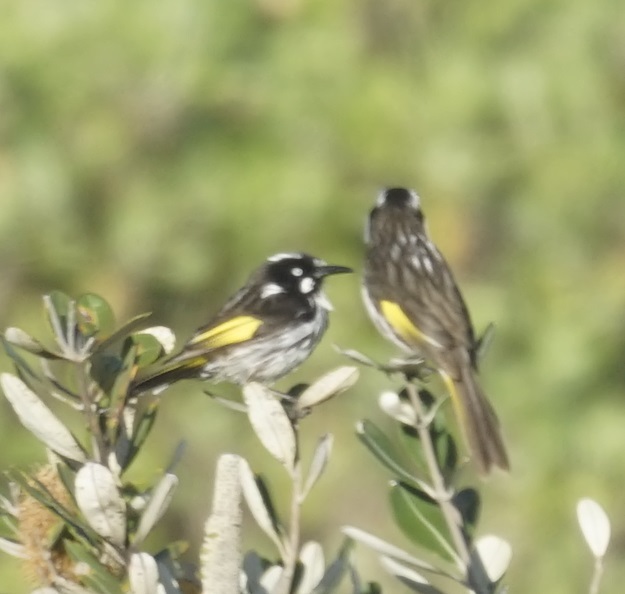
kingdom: Animalia
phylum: Chordata
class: Aves
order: Passeriformes
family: Meliphagidae
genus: Phylidonyris
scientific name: Phylidonyris novaehollandiae
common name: New holland honeyeater
